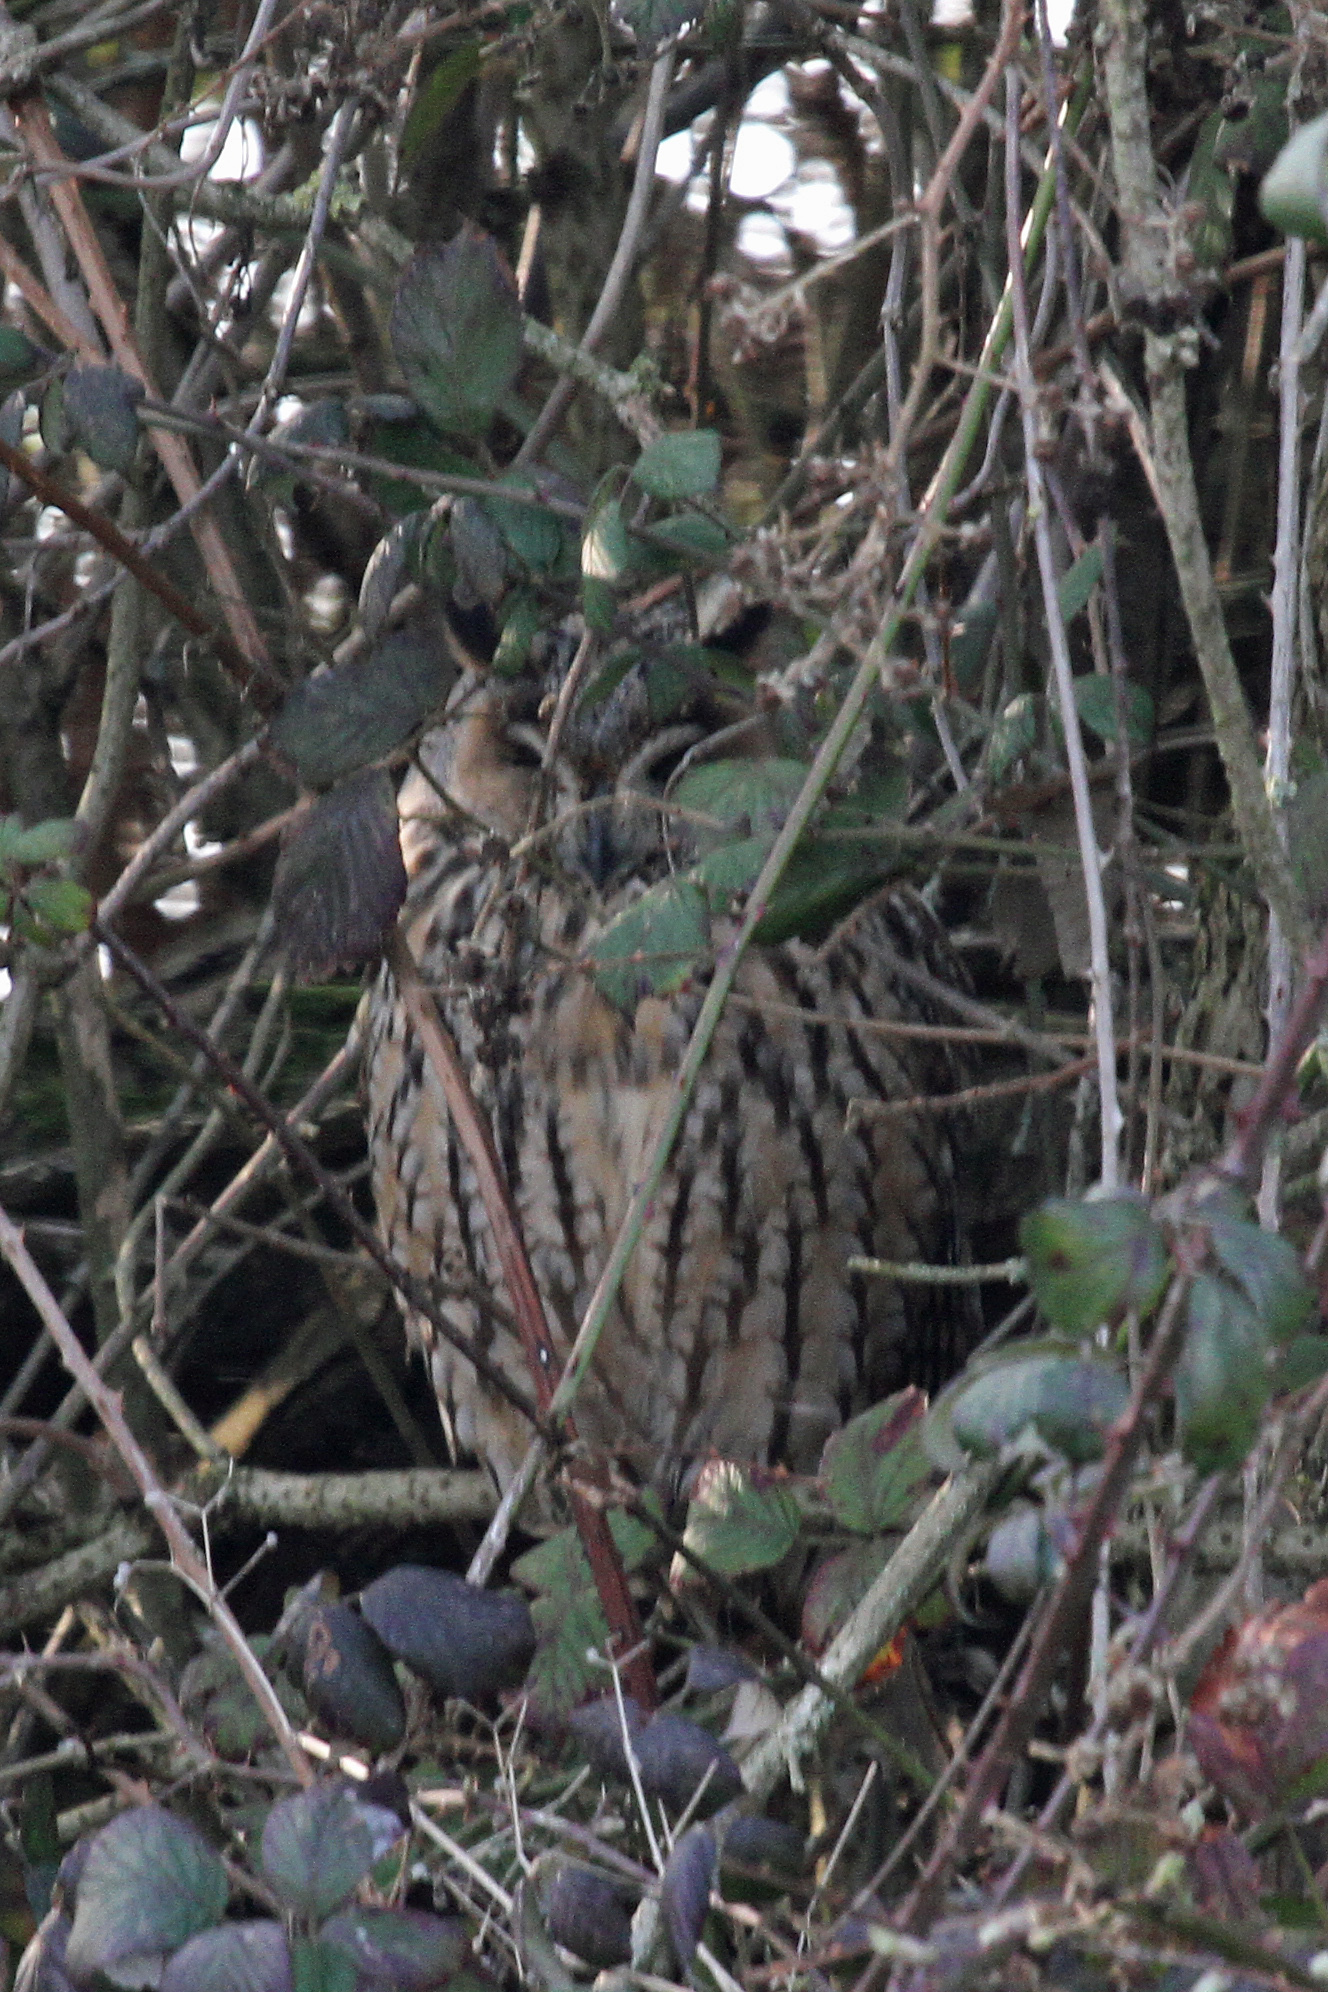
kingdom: Animalia
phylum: Chordata
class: Aves
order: Strigiformes
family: Strigidae
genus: Asio
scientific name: Asio otus
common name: Long-eared owl
